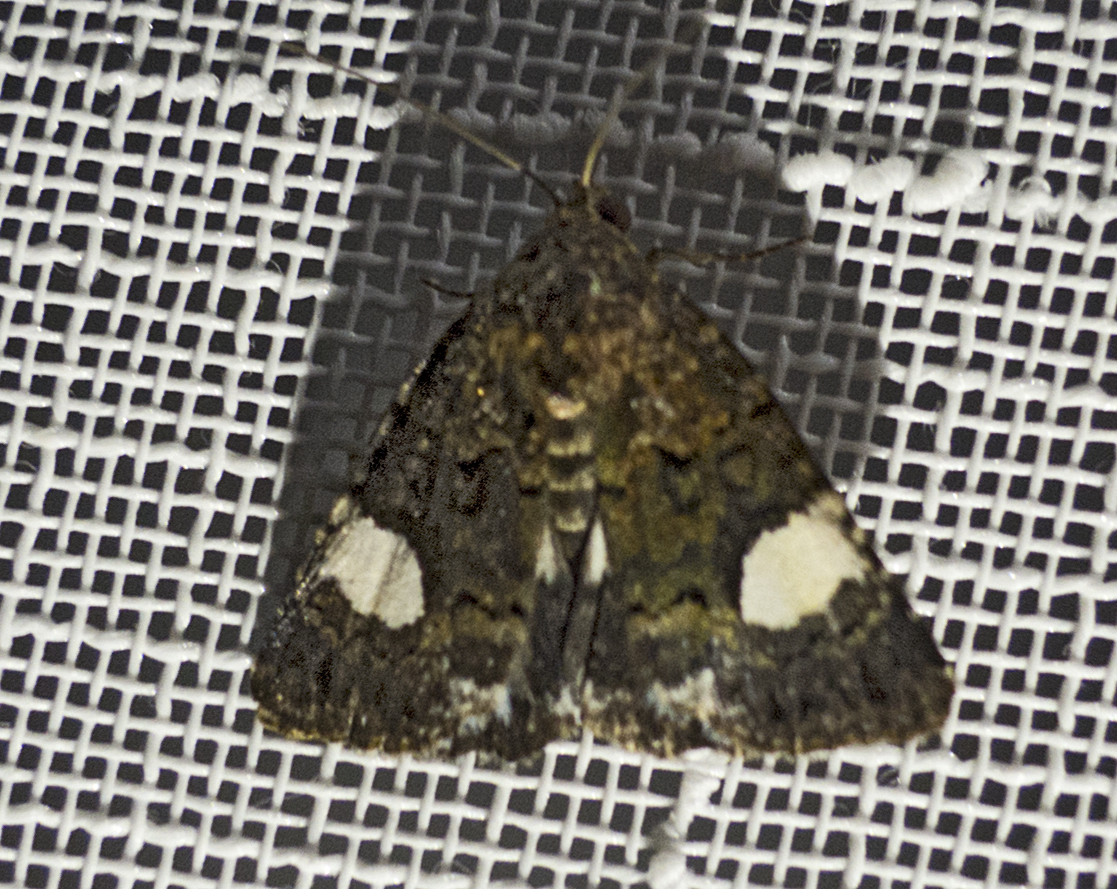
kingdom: Animalia
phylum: Arthropoda
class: Insecta
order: Lepidoptera
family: Erebidae
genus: Tyta
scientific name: Tyta luctuosa
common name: Four-spotted
